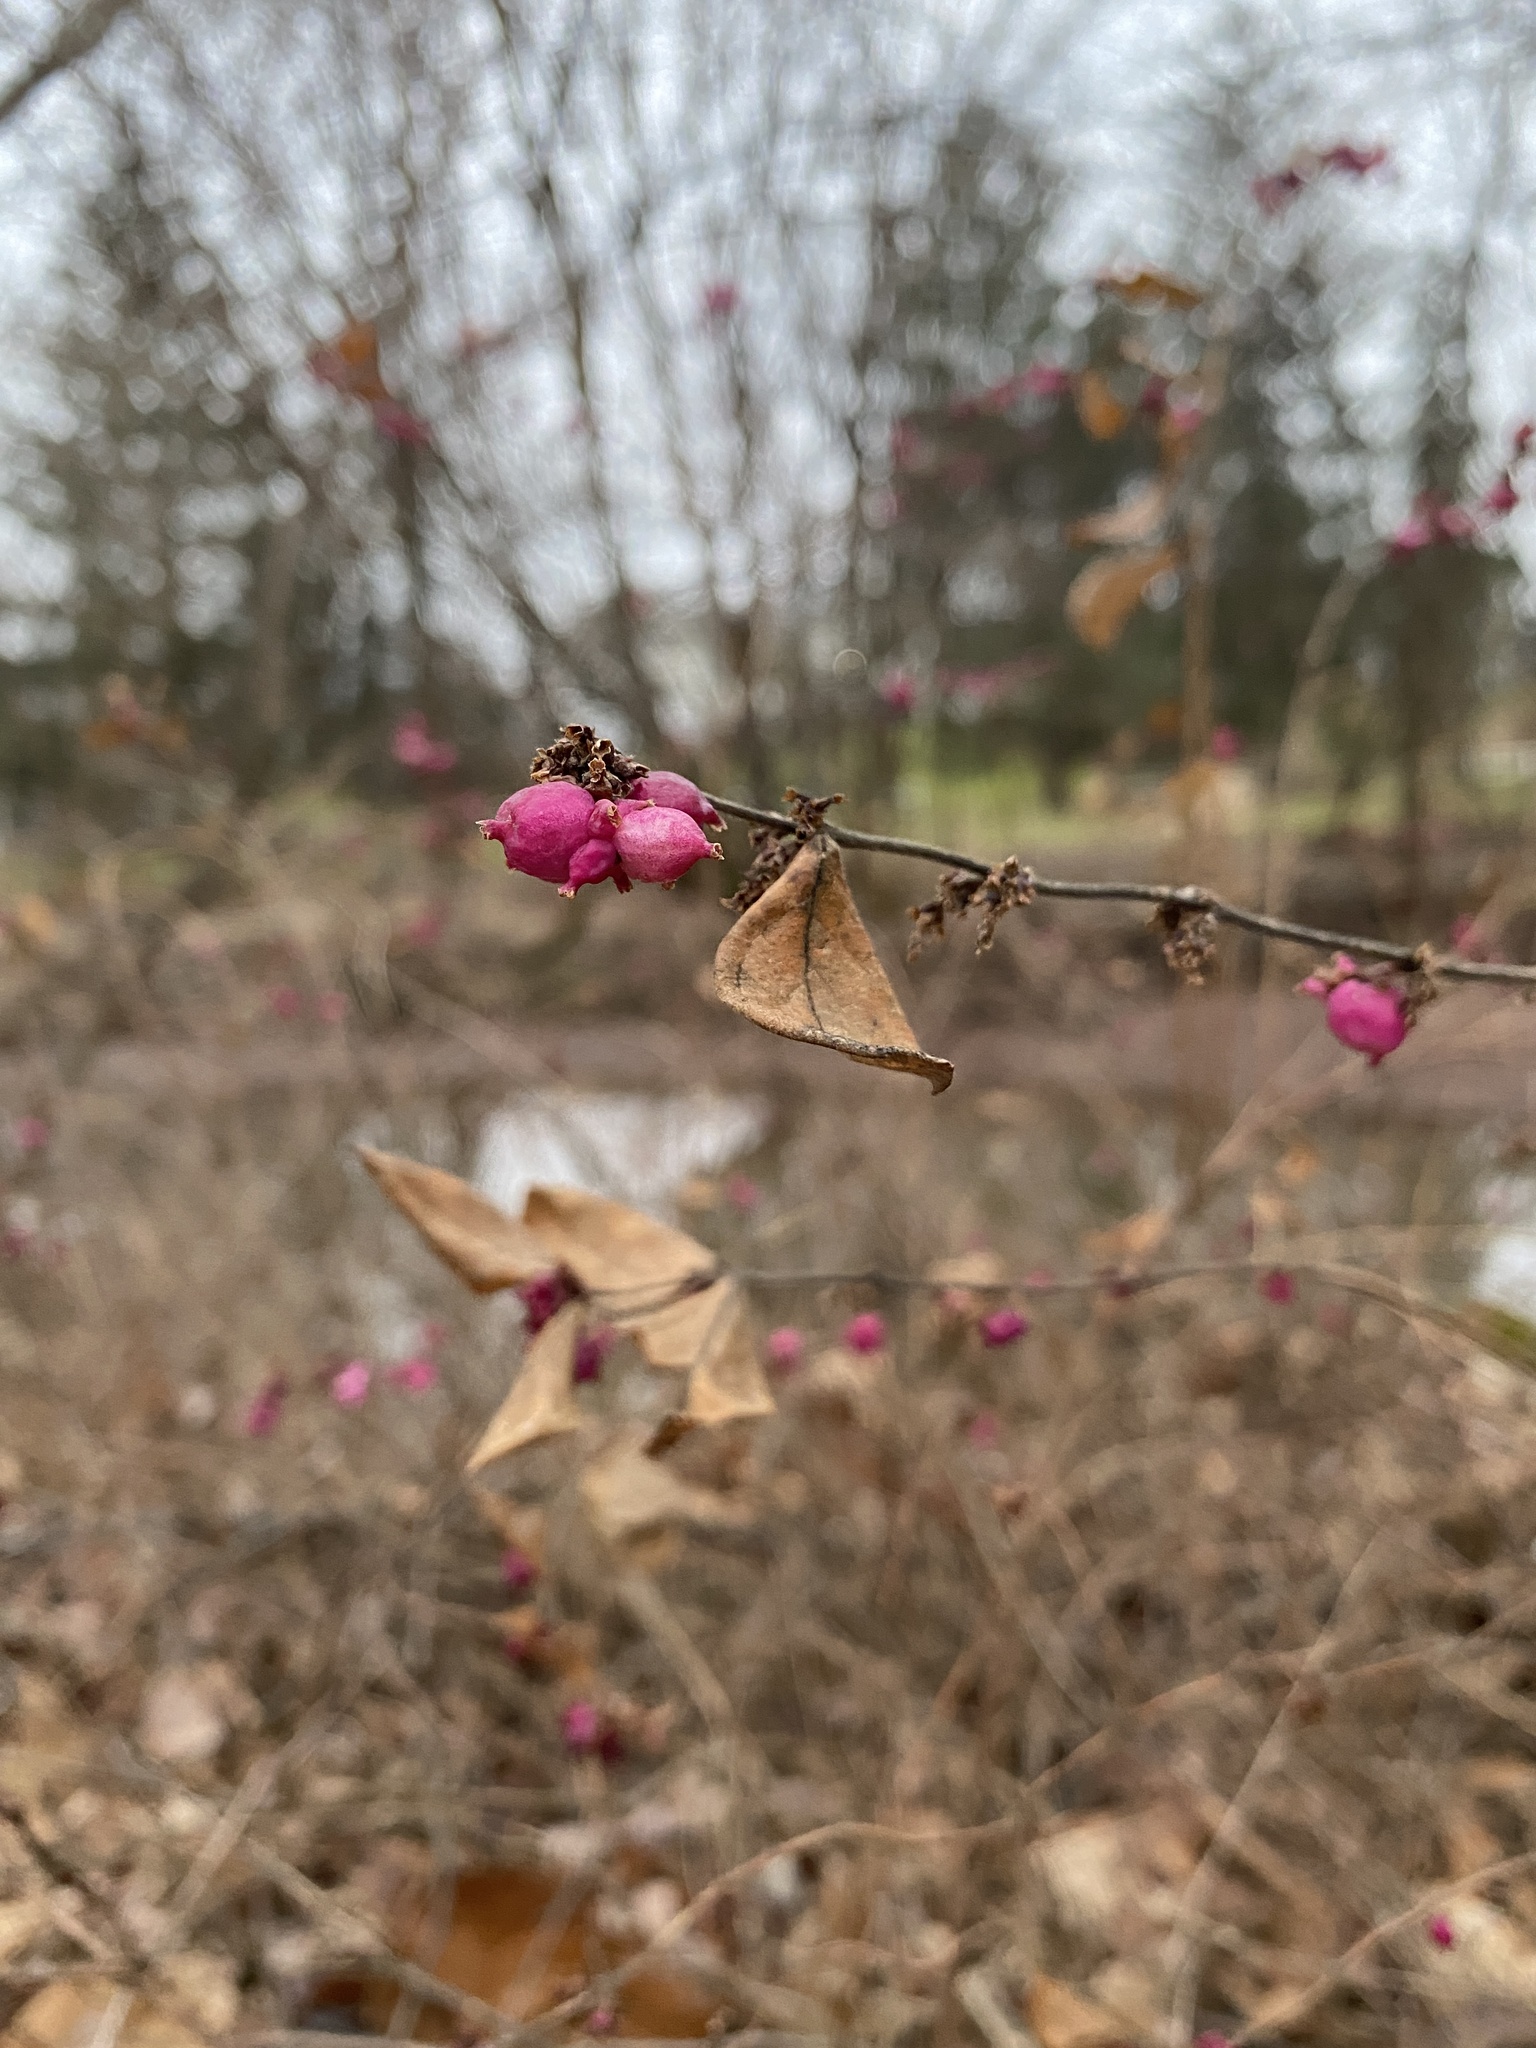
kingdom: Plantae
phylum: Tracheophyta
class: Magnoliopsida
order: Dipsacales
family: Caprifoliaceae
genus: Symphoricarpos
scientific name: Symphoricarpos orbiculatus
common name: Coralberry
